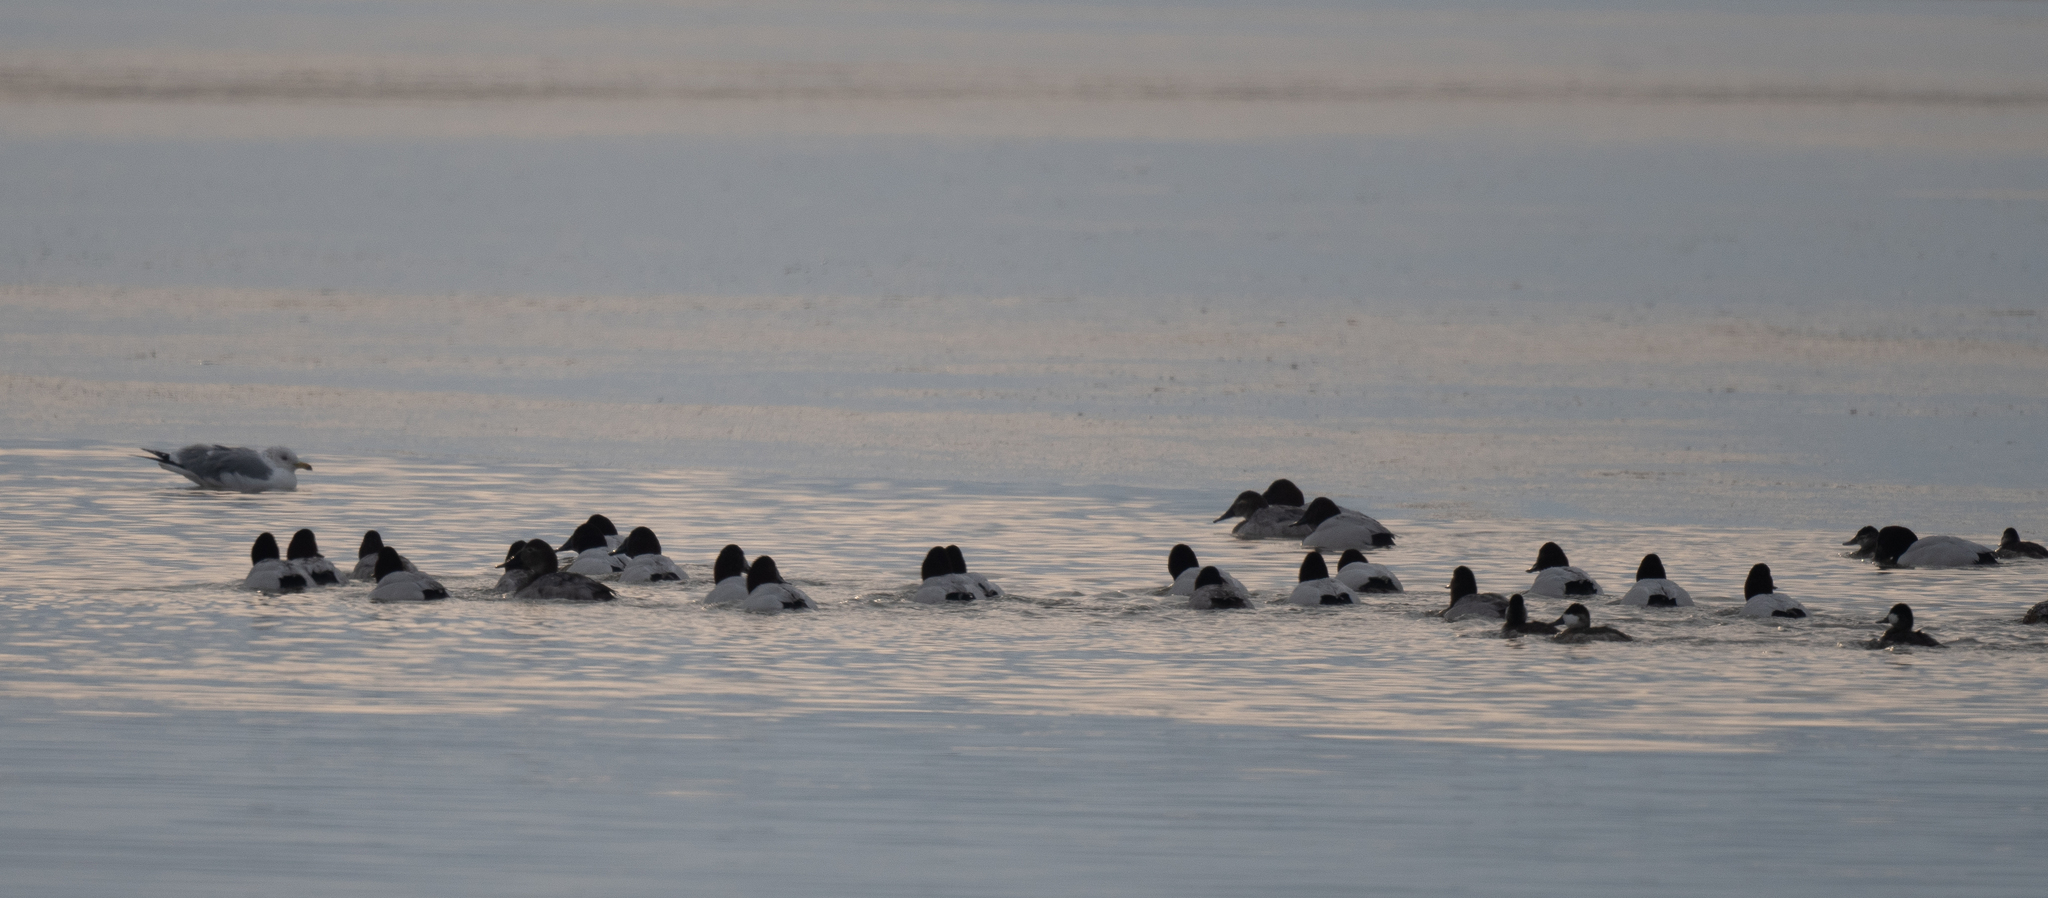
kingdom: Animalia
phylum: Chordata
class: Aves
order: Anseriformes
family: Anatidae
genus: Aythya
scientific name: Aythya valisineria
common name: Canvasback
